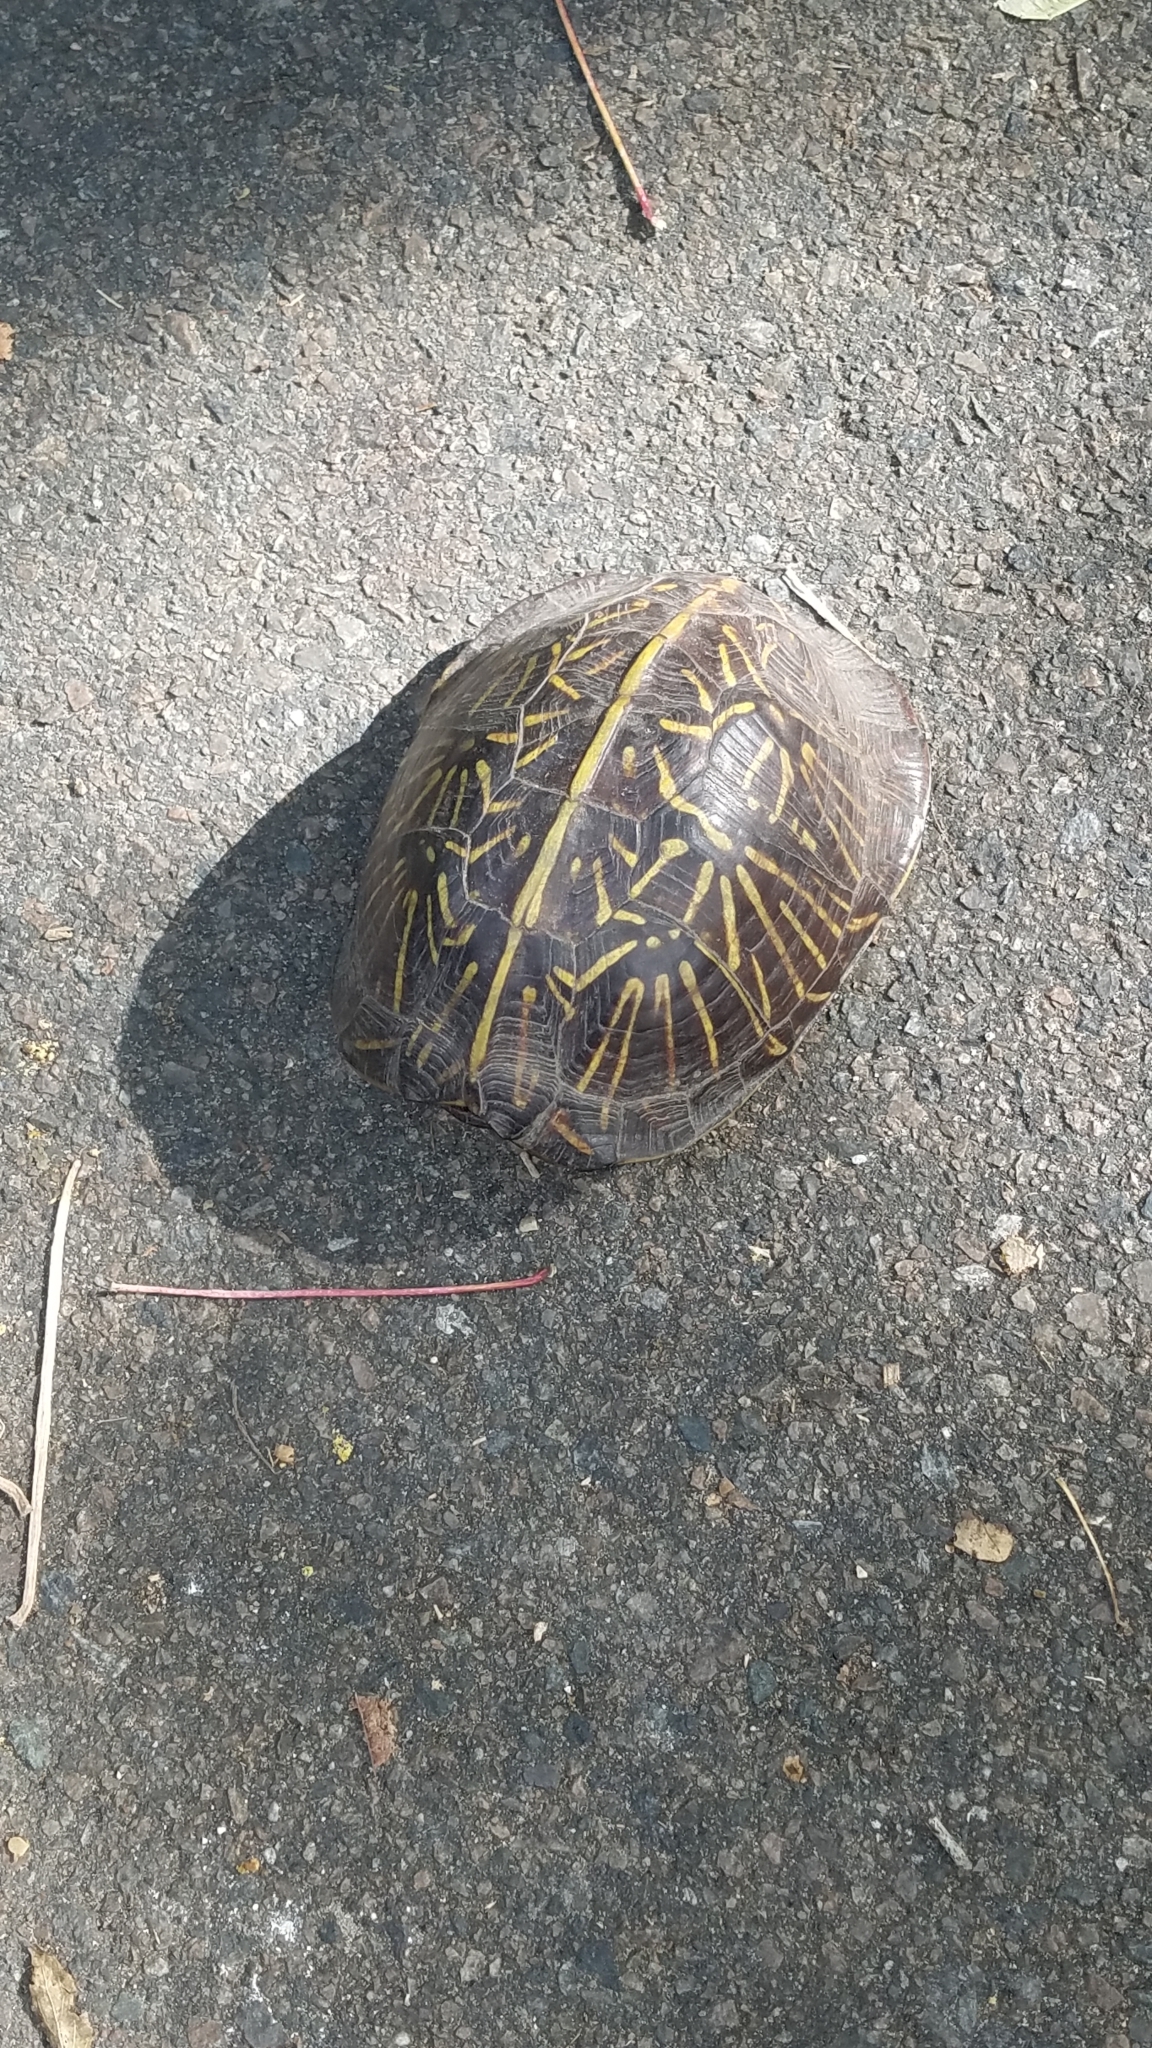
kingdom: Animalia
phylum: Chordata
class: Testudines
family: Emydidae
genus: Terrapene
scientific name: Terrapene carolina
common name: Common box turtle
